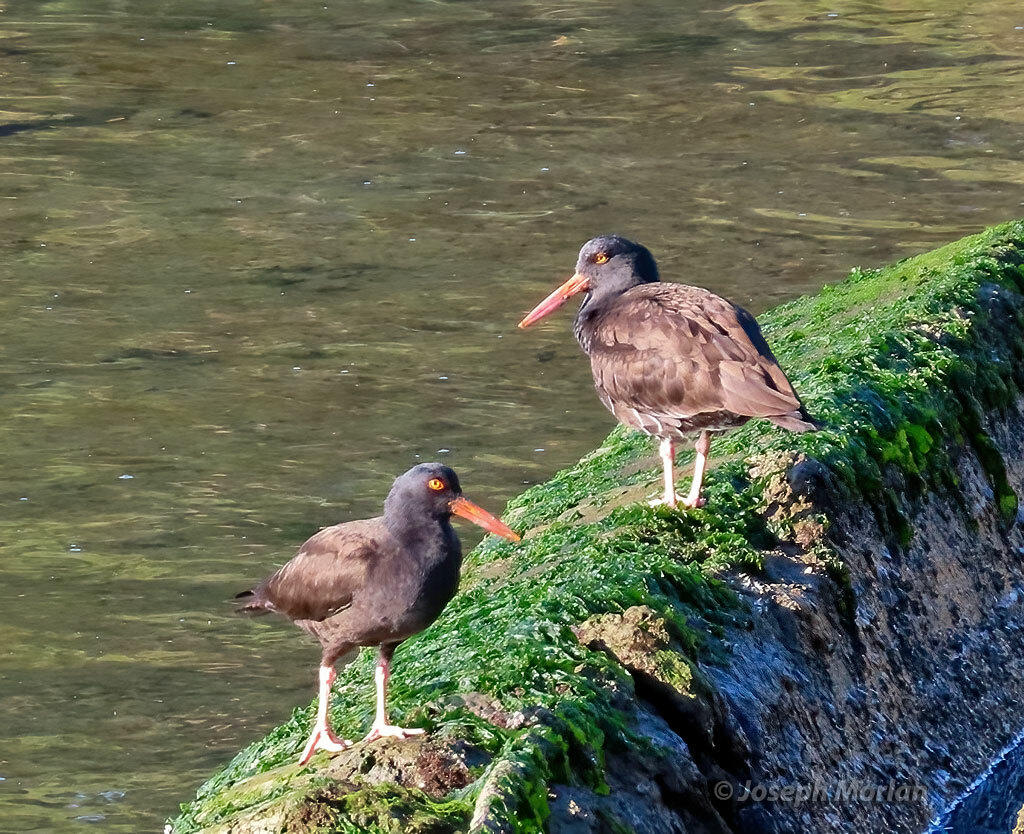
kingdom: Animalia
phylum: Chordata
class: Aves
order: Charadriiformes
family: Haematopodidae
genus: Haematopus
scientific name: Haematopus bachmani
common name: Black oystercatcher
